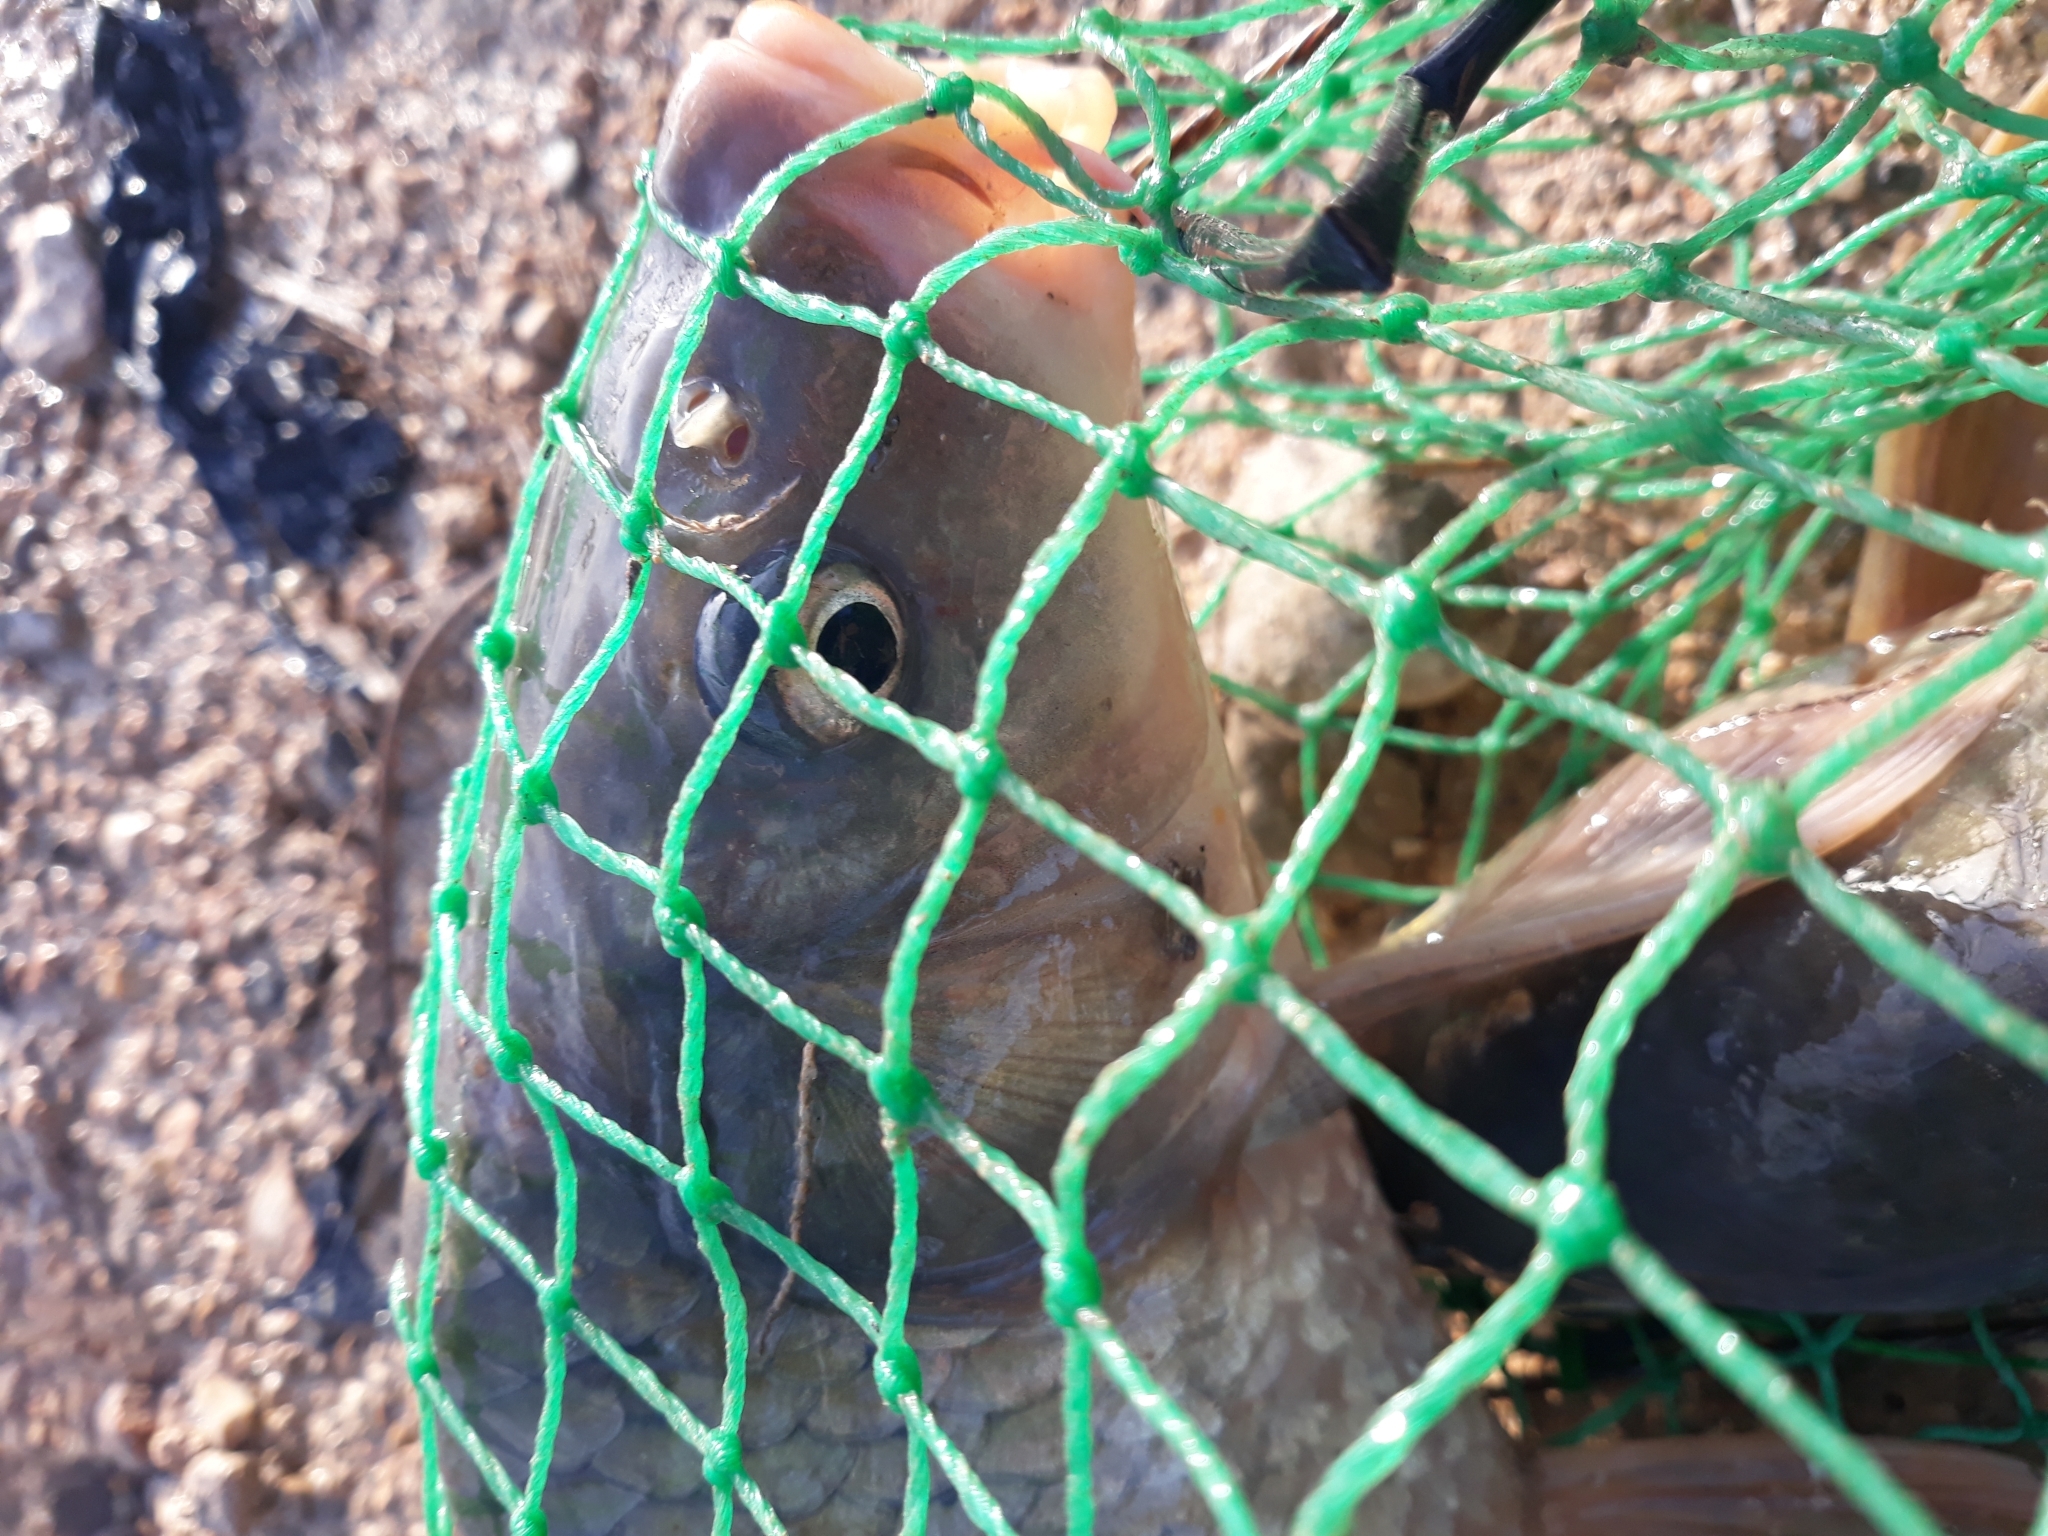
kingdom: Animalia
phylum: Chordata
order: Cypriniformes
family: Cyprinidae
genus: Cyprinus
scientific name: Cyprinus carpio
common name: Common carp
